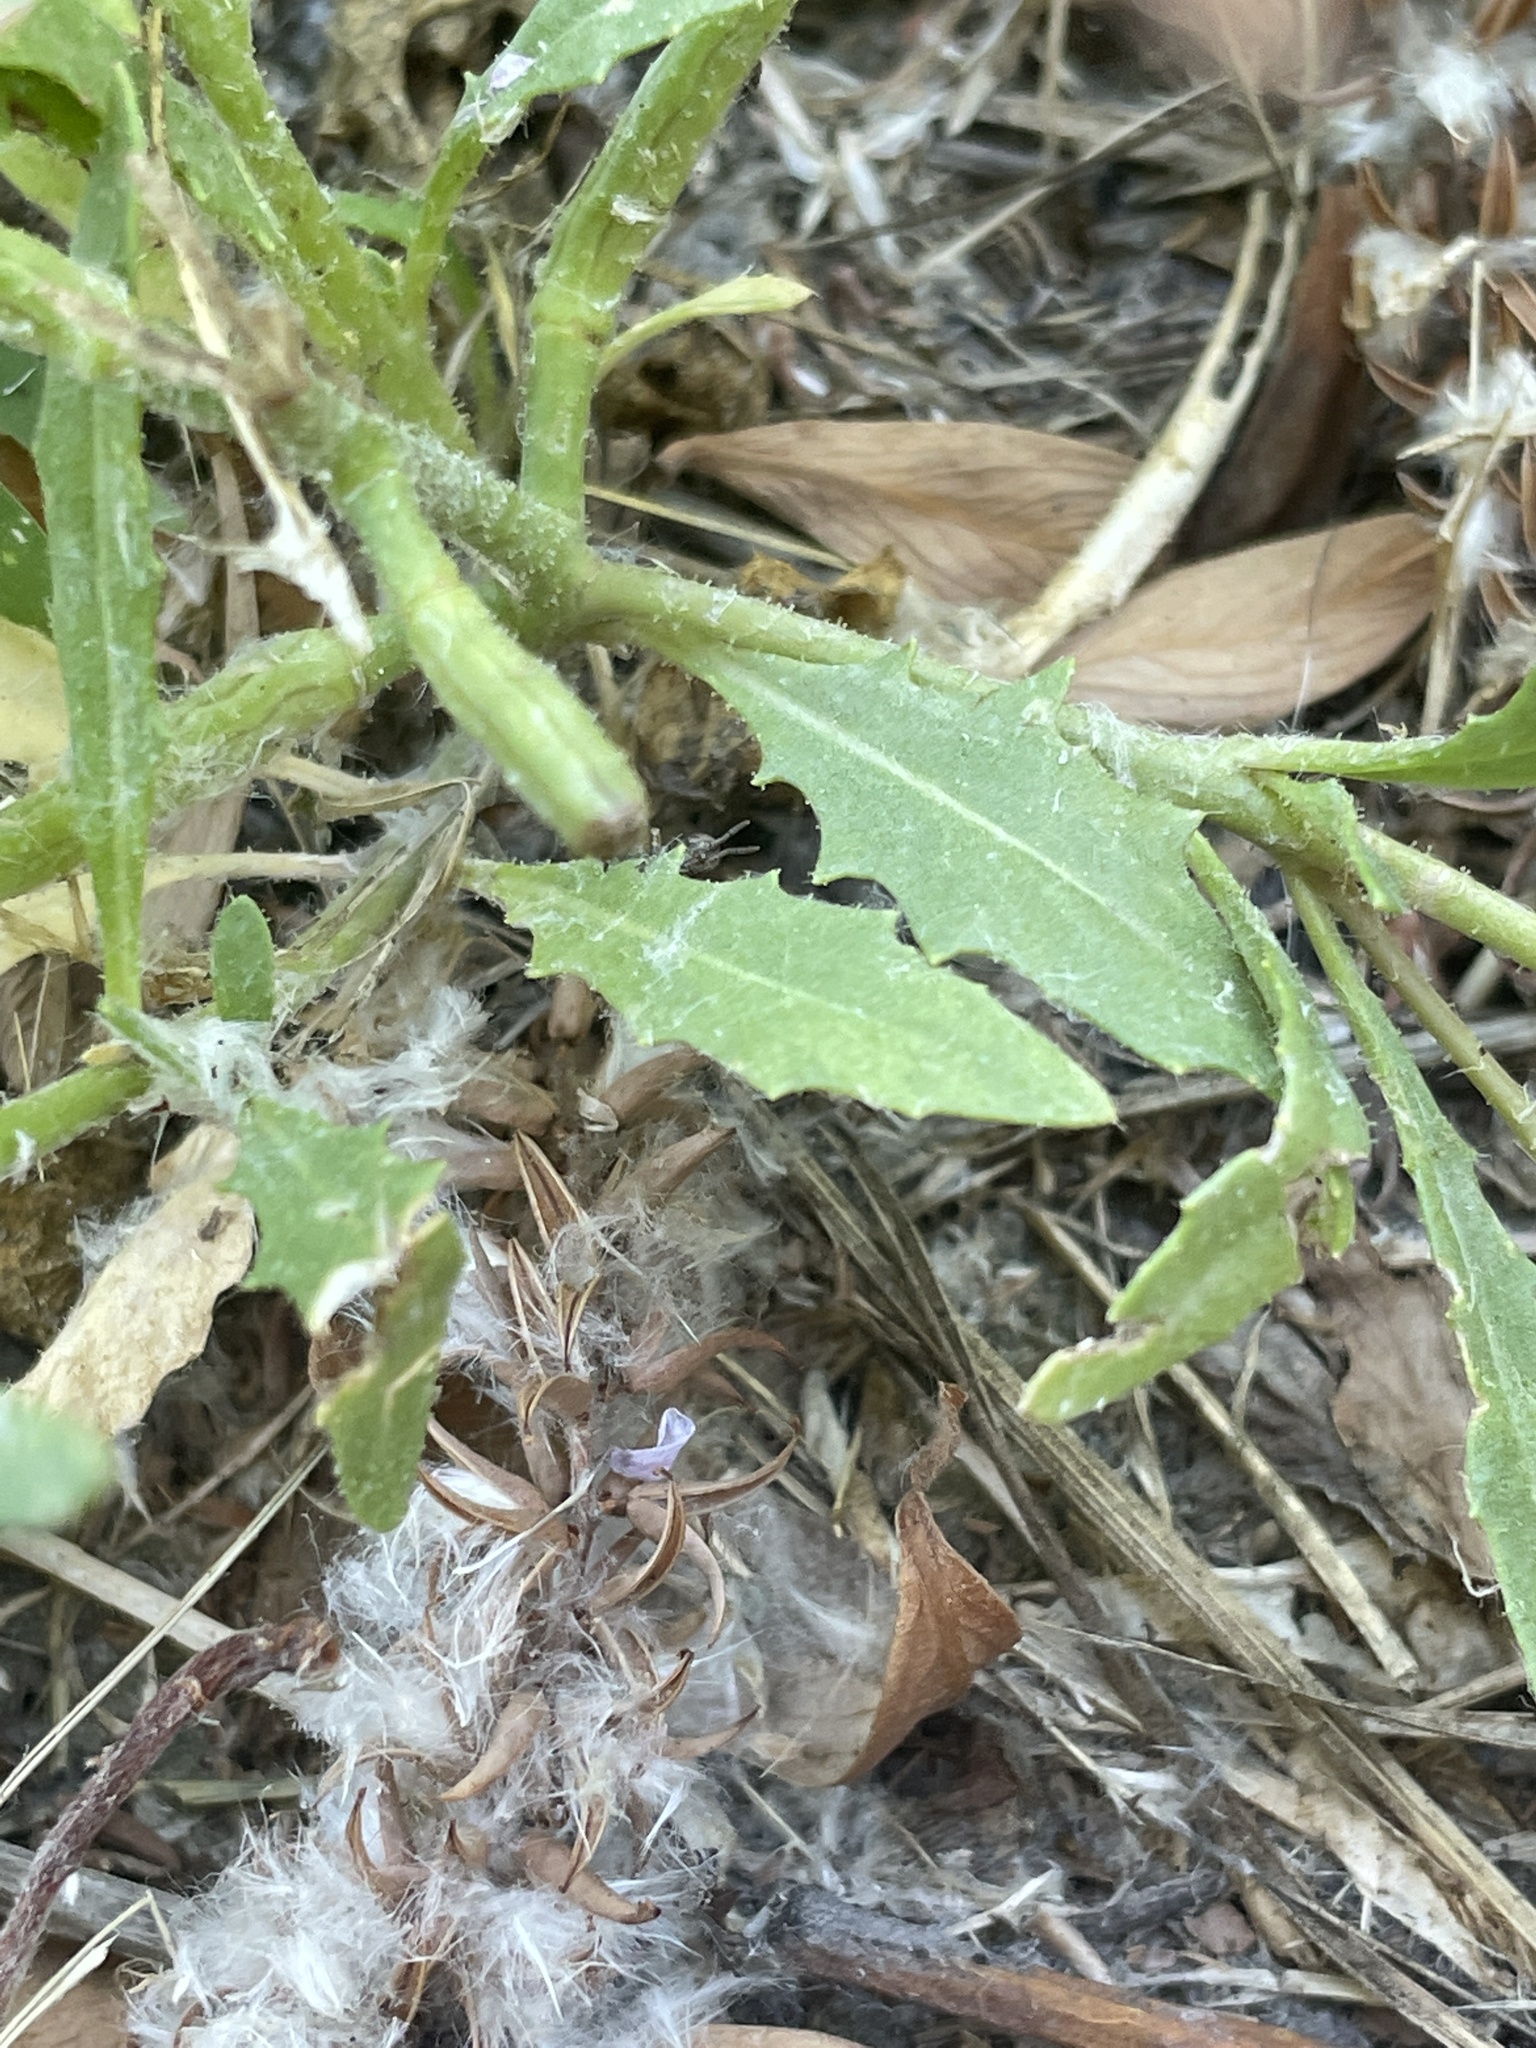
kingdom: Plantae
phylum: Tracheophyta
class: Magnoliopsida
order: Brassicales
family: Brassicaceae
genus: Chorispora
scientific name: Chorispora tenella
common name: Crossflower
